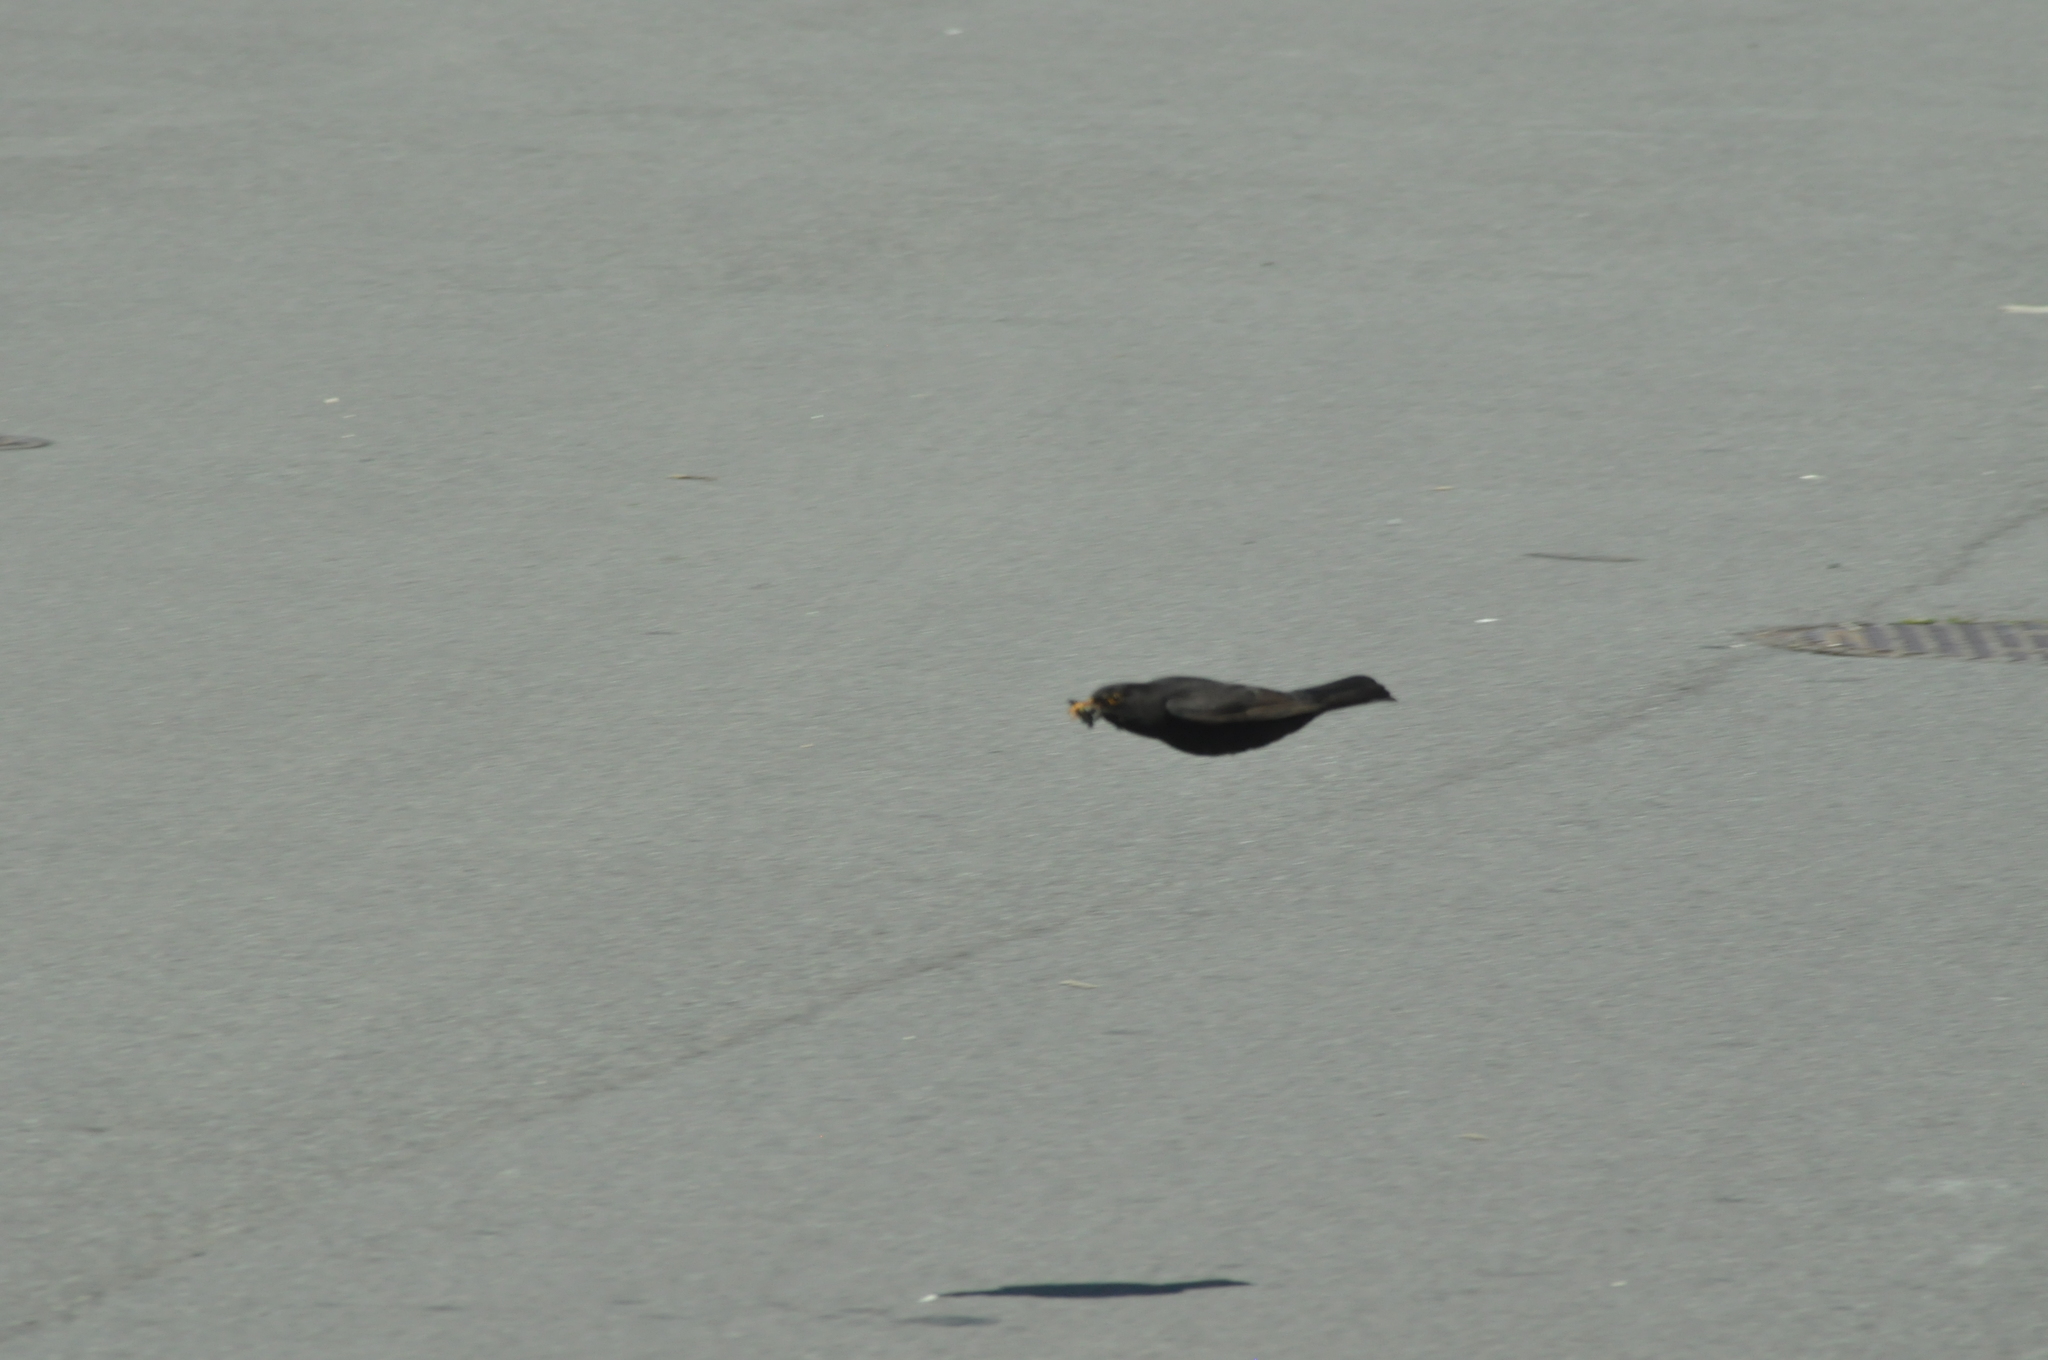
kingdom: Animalia
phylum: Chordata
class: Aves
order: Passeriformes
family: Turdidae
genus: Turdus
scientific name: Turdus merula
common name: Common blackbird
